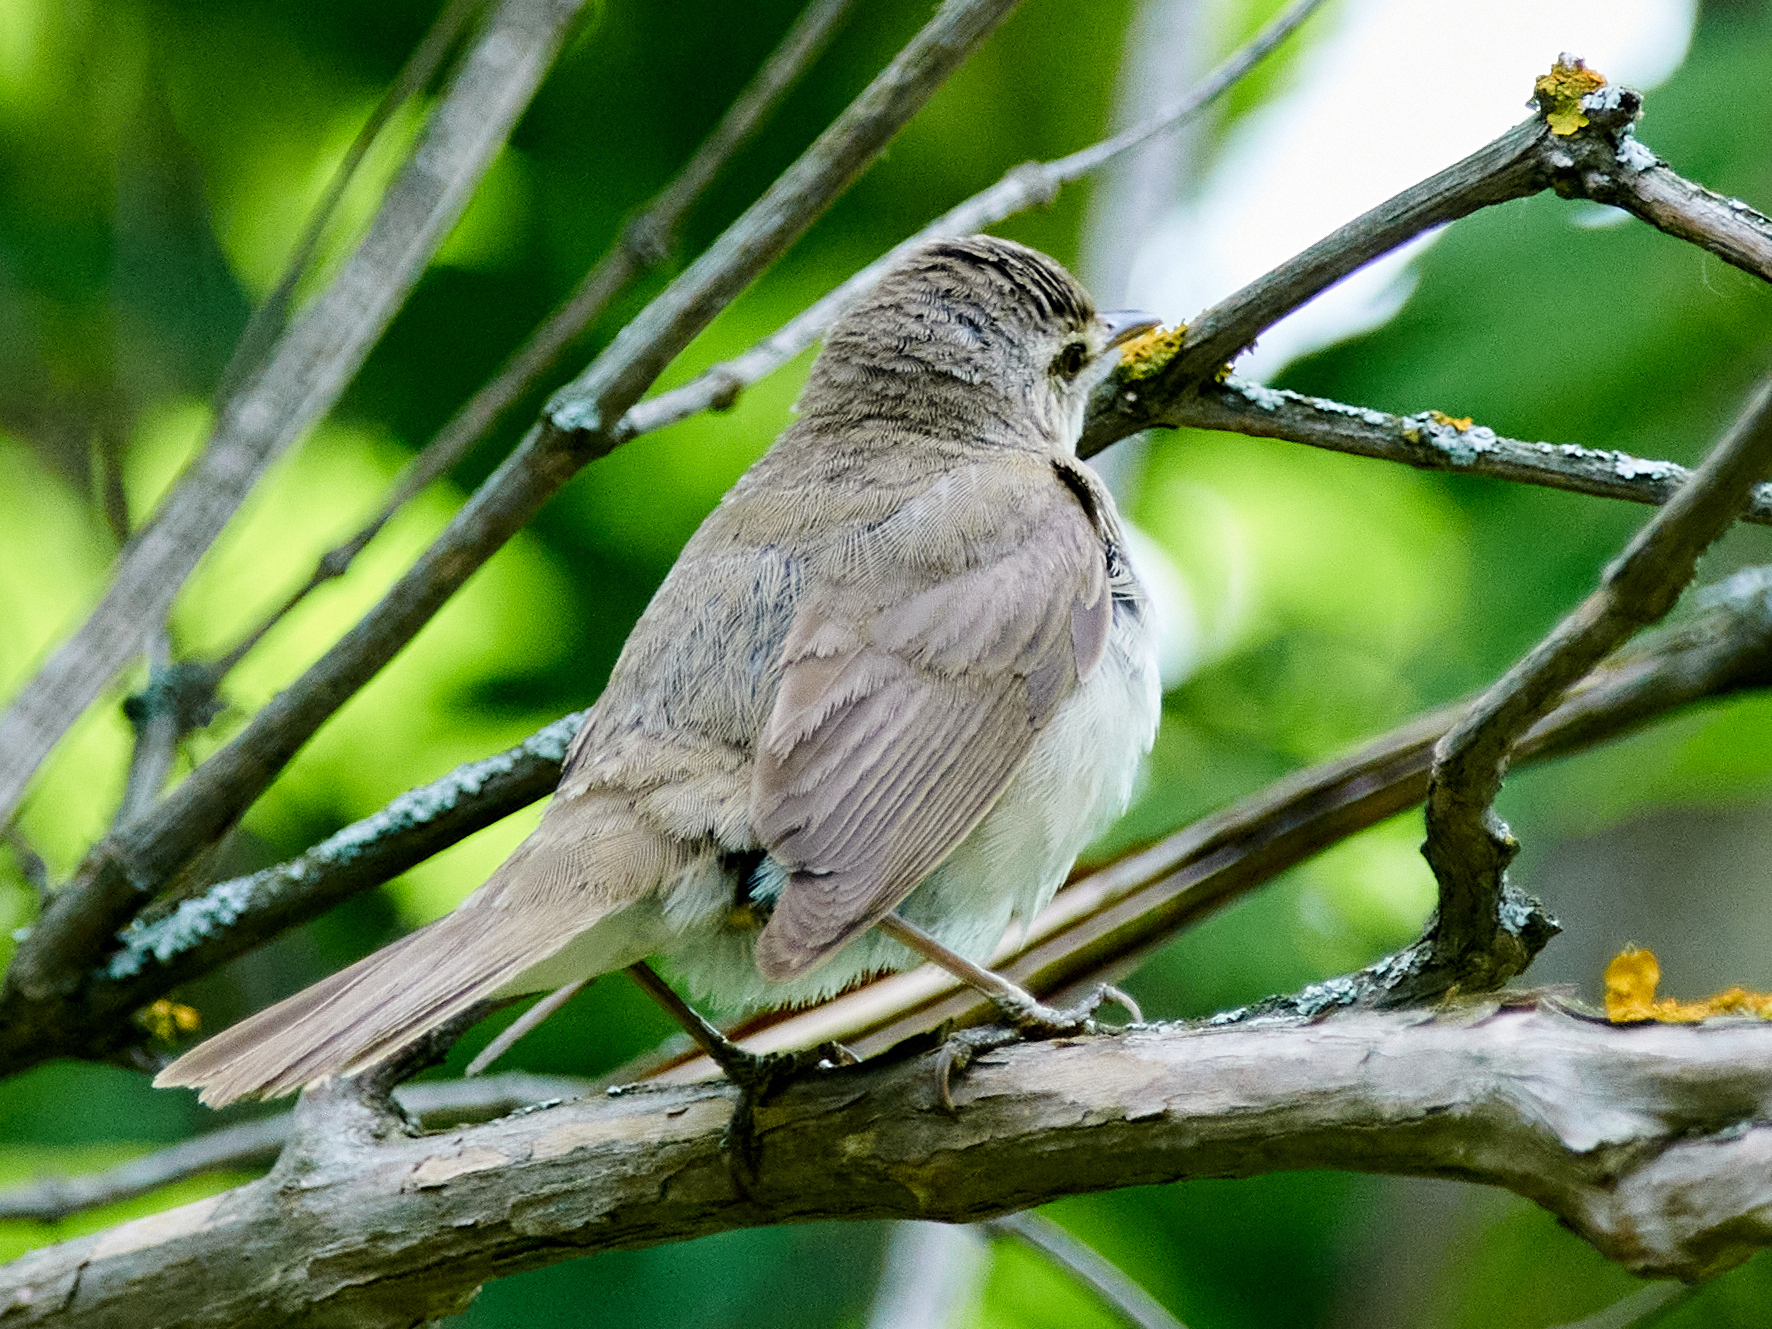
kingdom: Animalia
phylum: Chordata
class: Aves
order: Passeriformes
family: Acrocephalidae
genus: Acrocephalus
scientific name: Acrocephalus dumetorum
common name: Blyth's reed warbler
